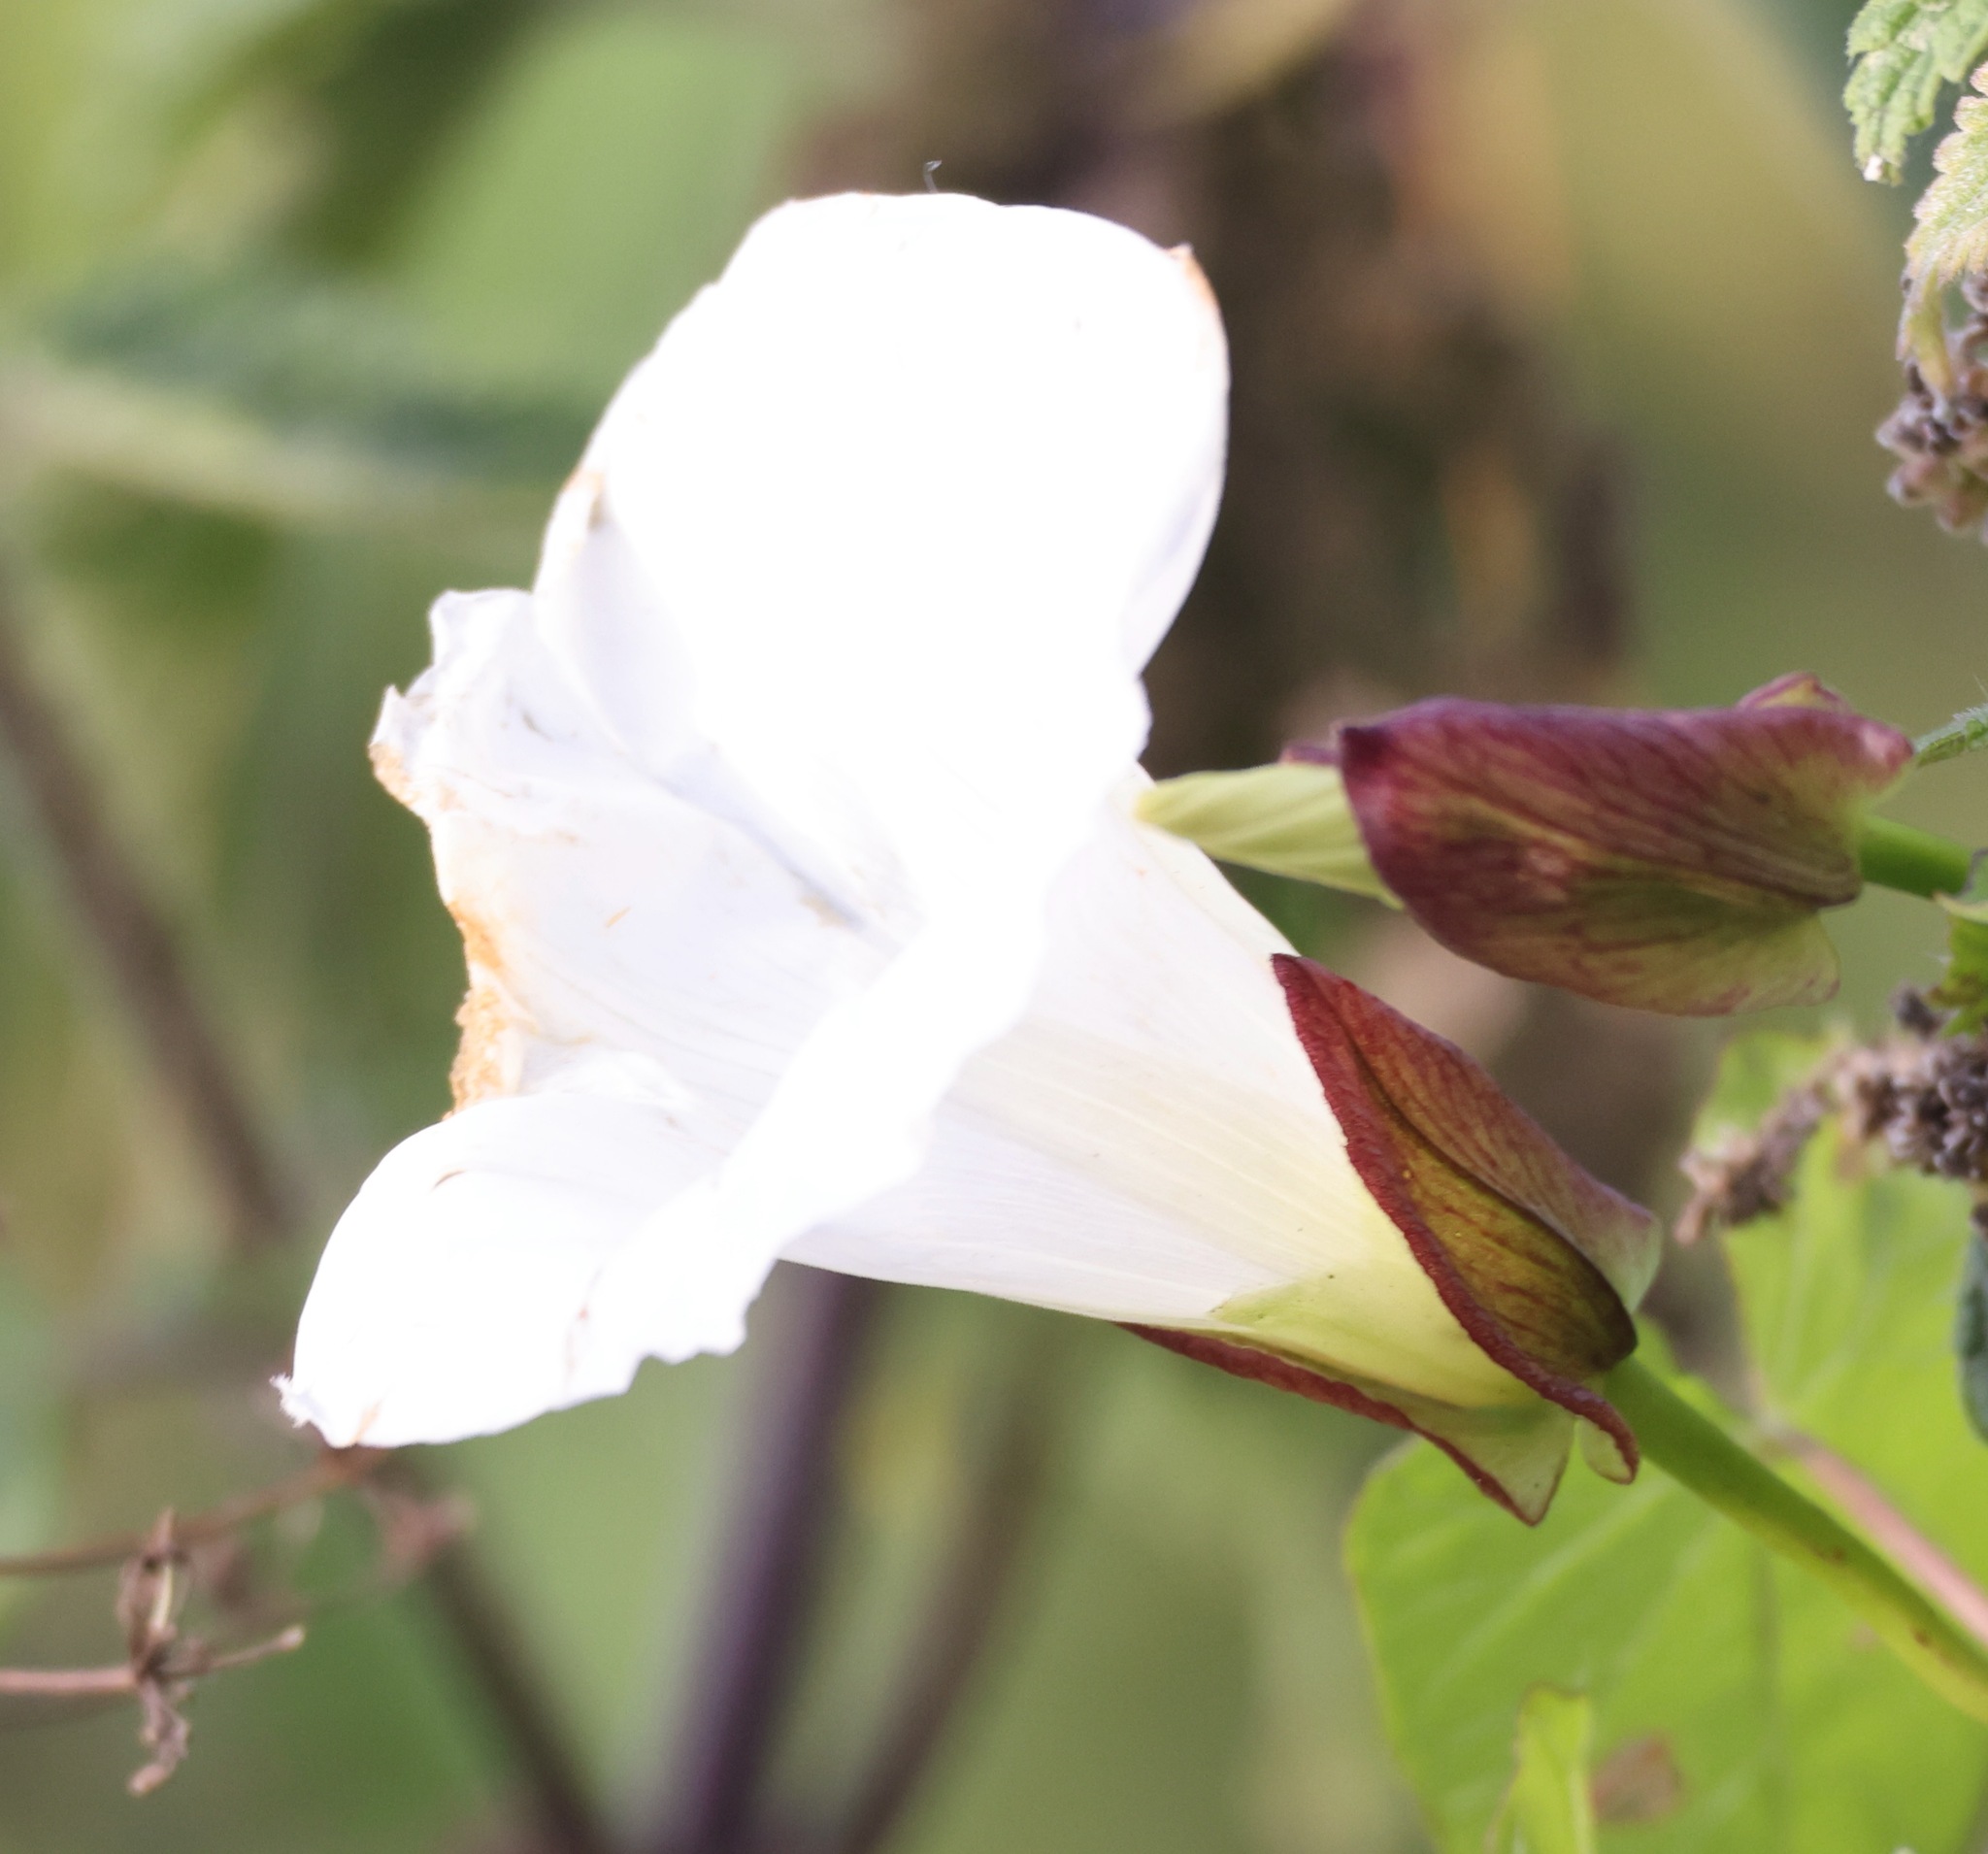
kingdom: Plantae
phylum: Tracheophyta
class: Magnoliopsida
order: Solanales
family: Convolvulaceae
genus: Calystegia
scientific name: Calystegia sepium
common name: Hedge bindweed
